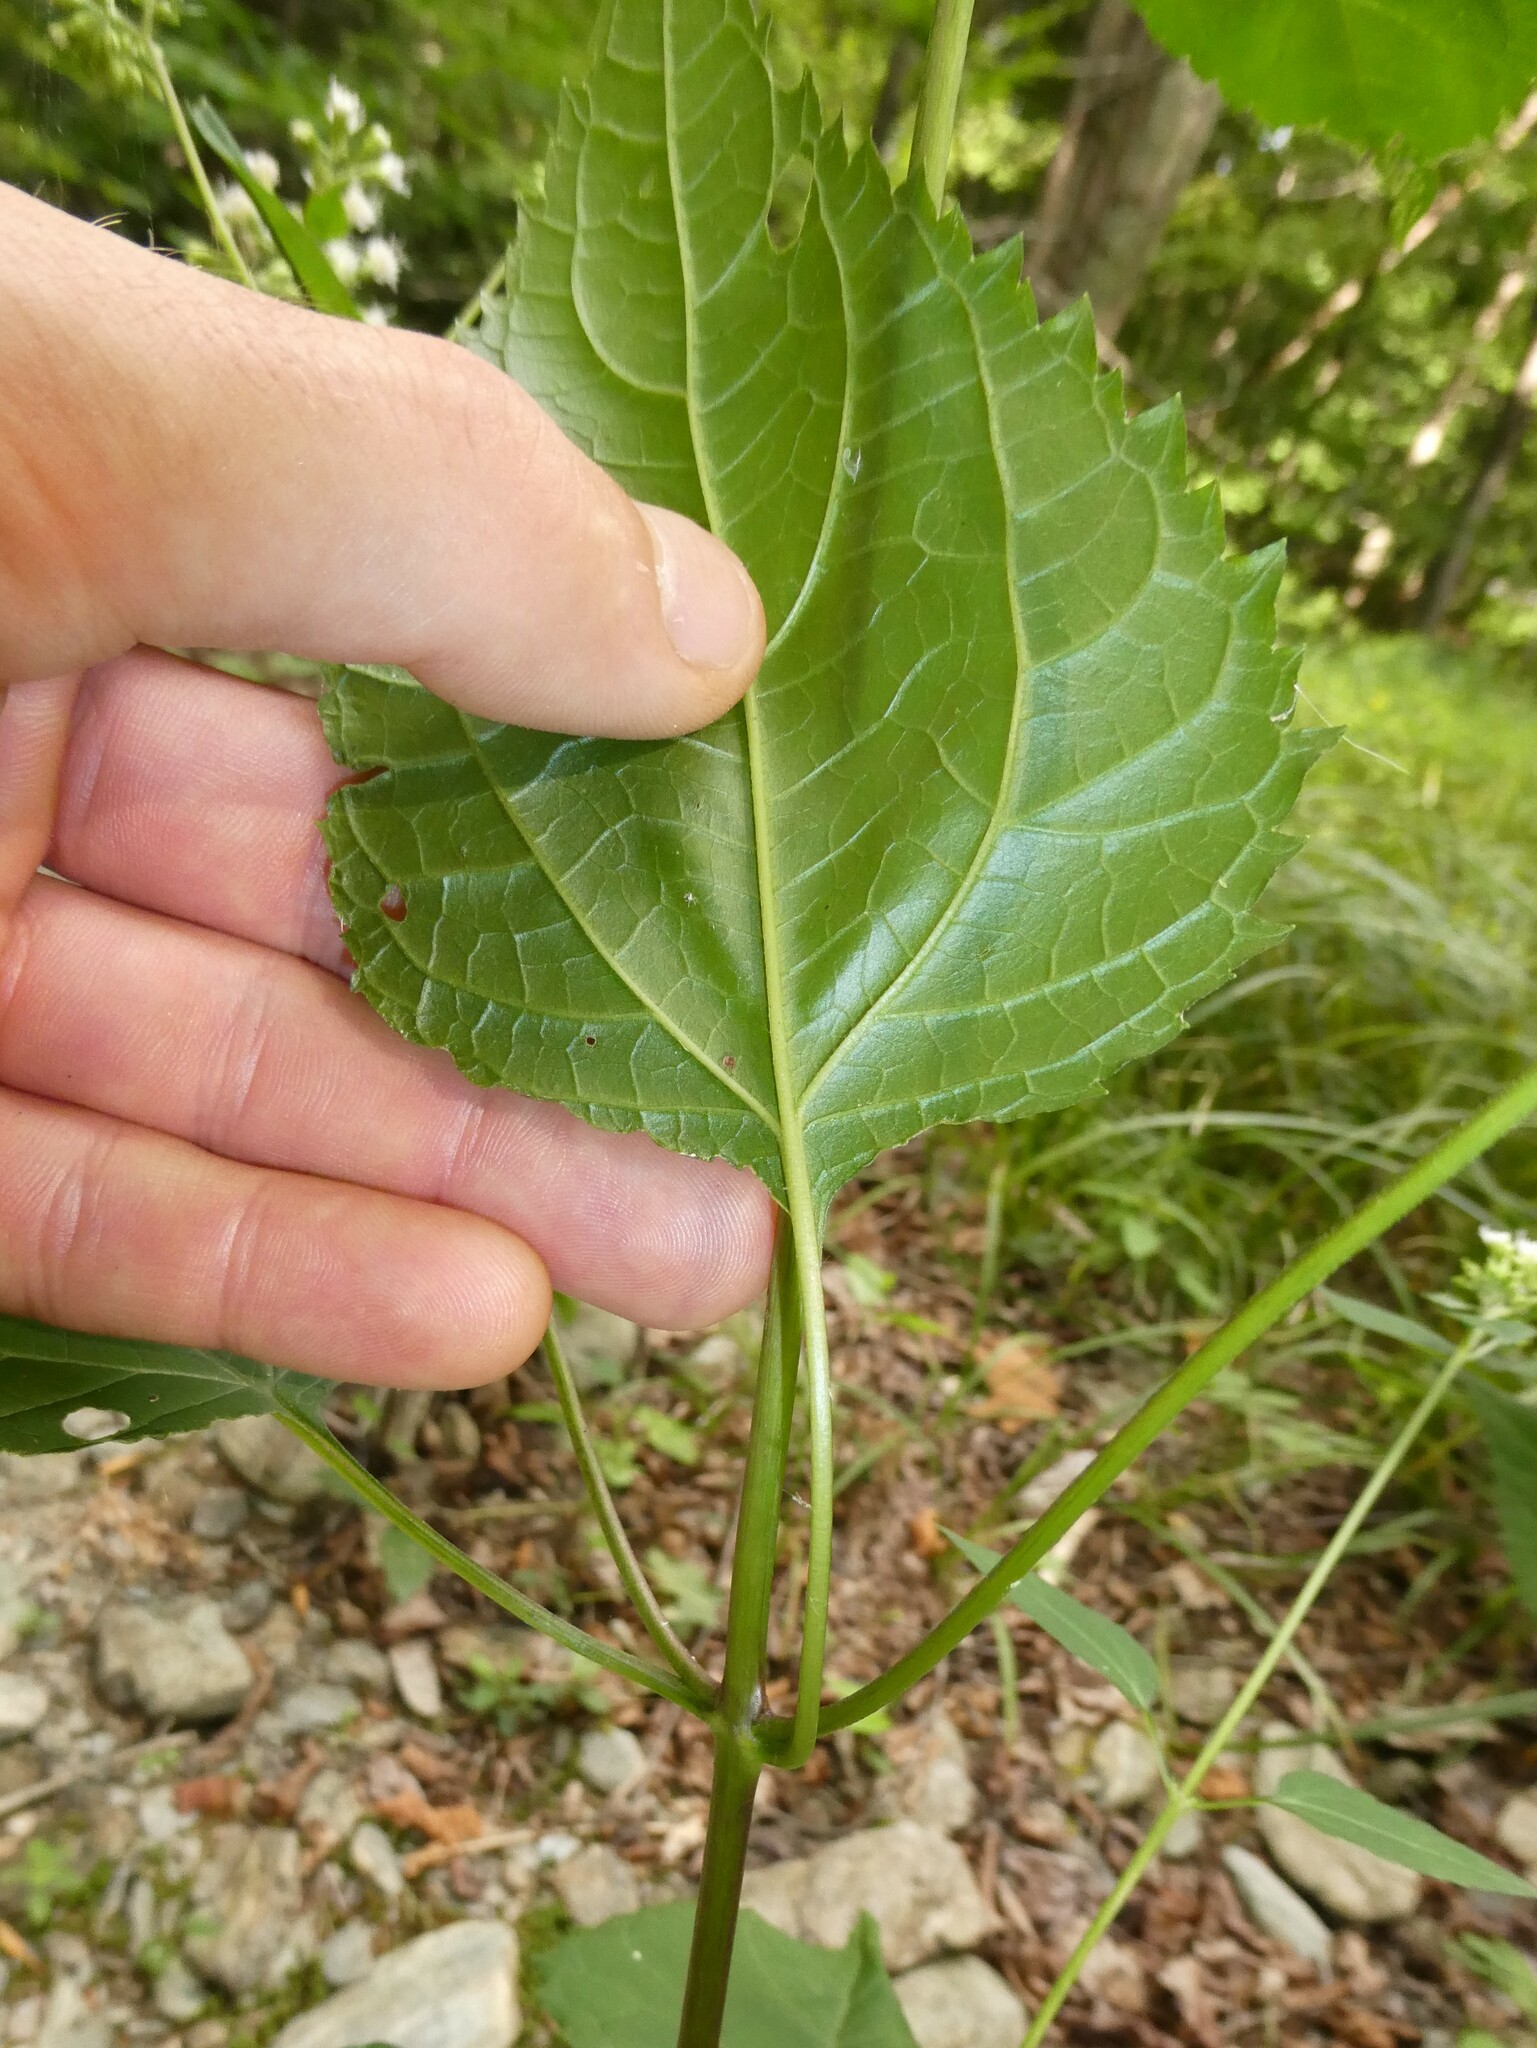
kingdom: Plantae
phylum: Tracheophyta
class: Magnoliopsida
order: Asterales
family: Asteraceae
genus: Ageratina
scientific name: Ageratina altissima
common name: White snakeroot
